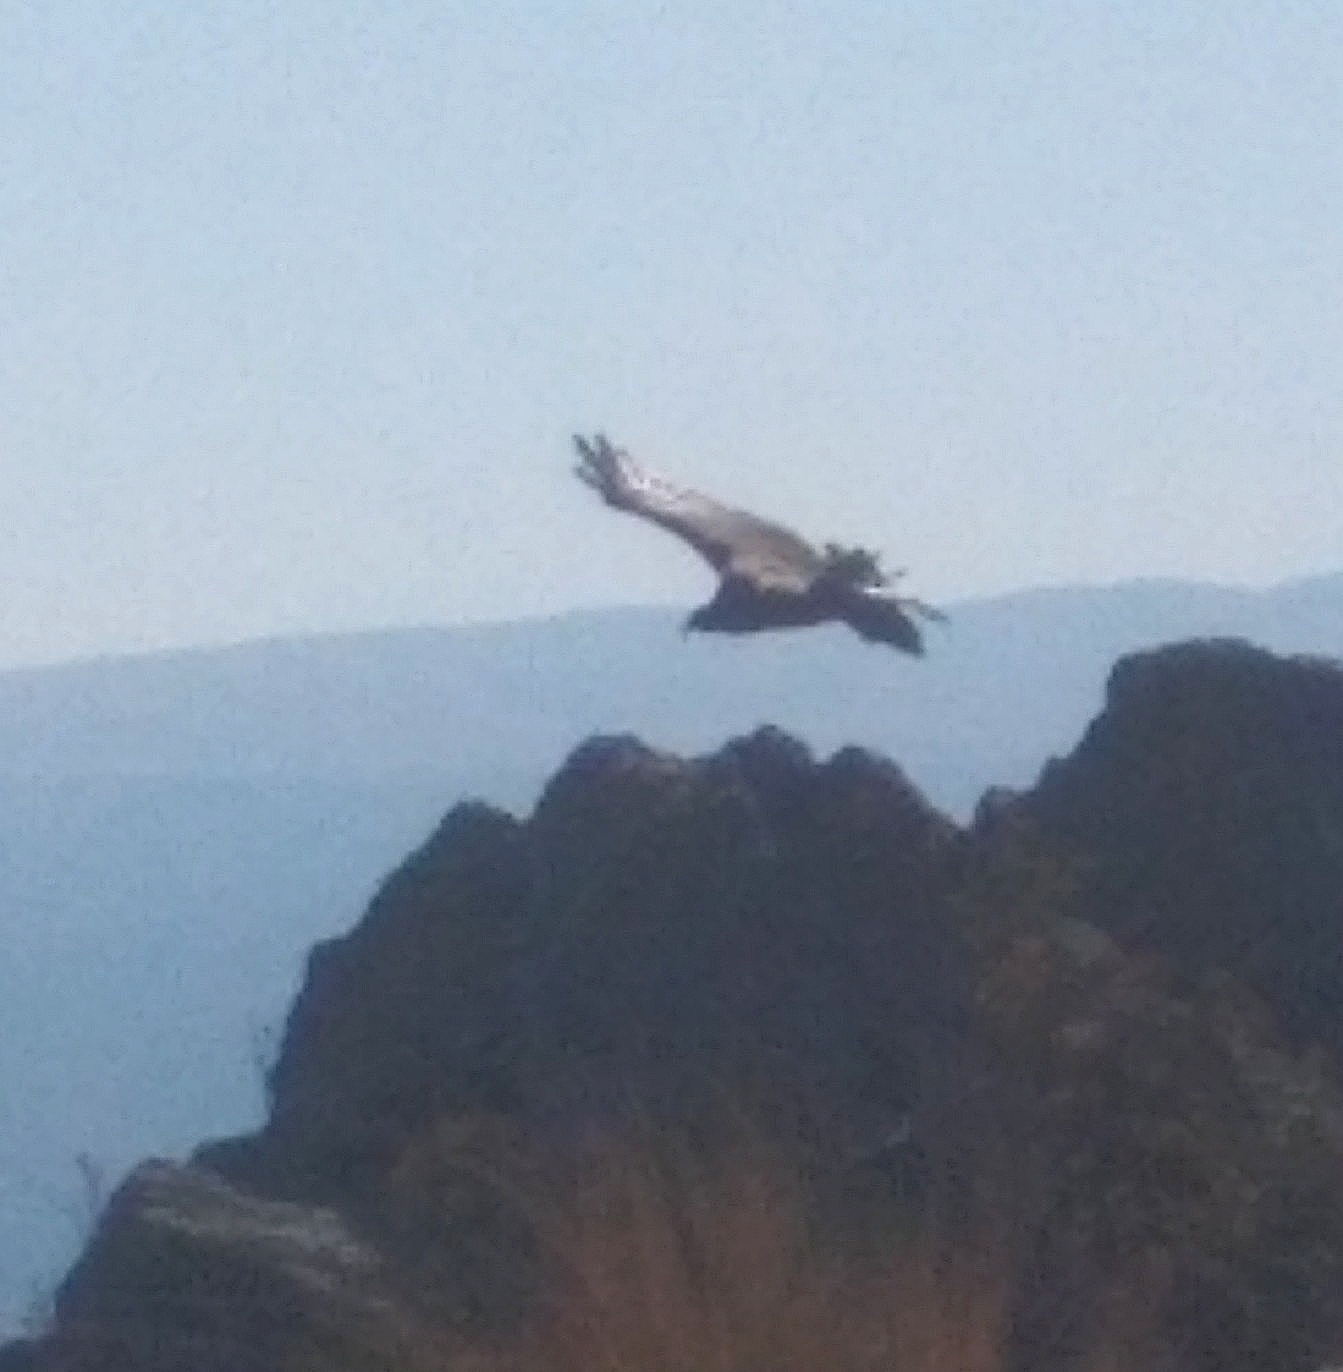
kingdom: Animalia
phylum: Chordata
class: Aves
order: Accipitriformes
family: Cathartidae
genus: Vultur
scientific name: Vultur gryphus
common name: Andean condor
